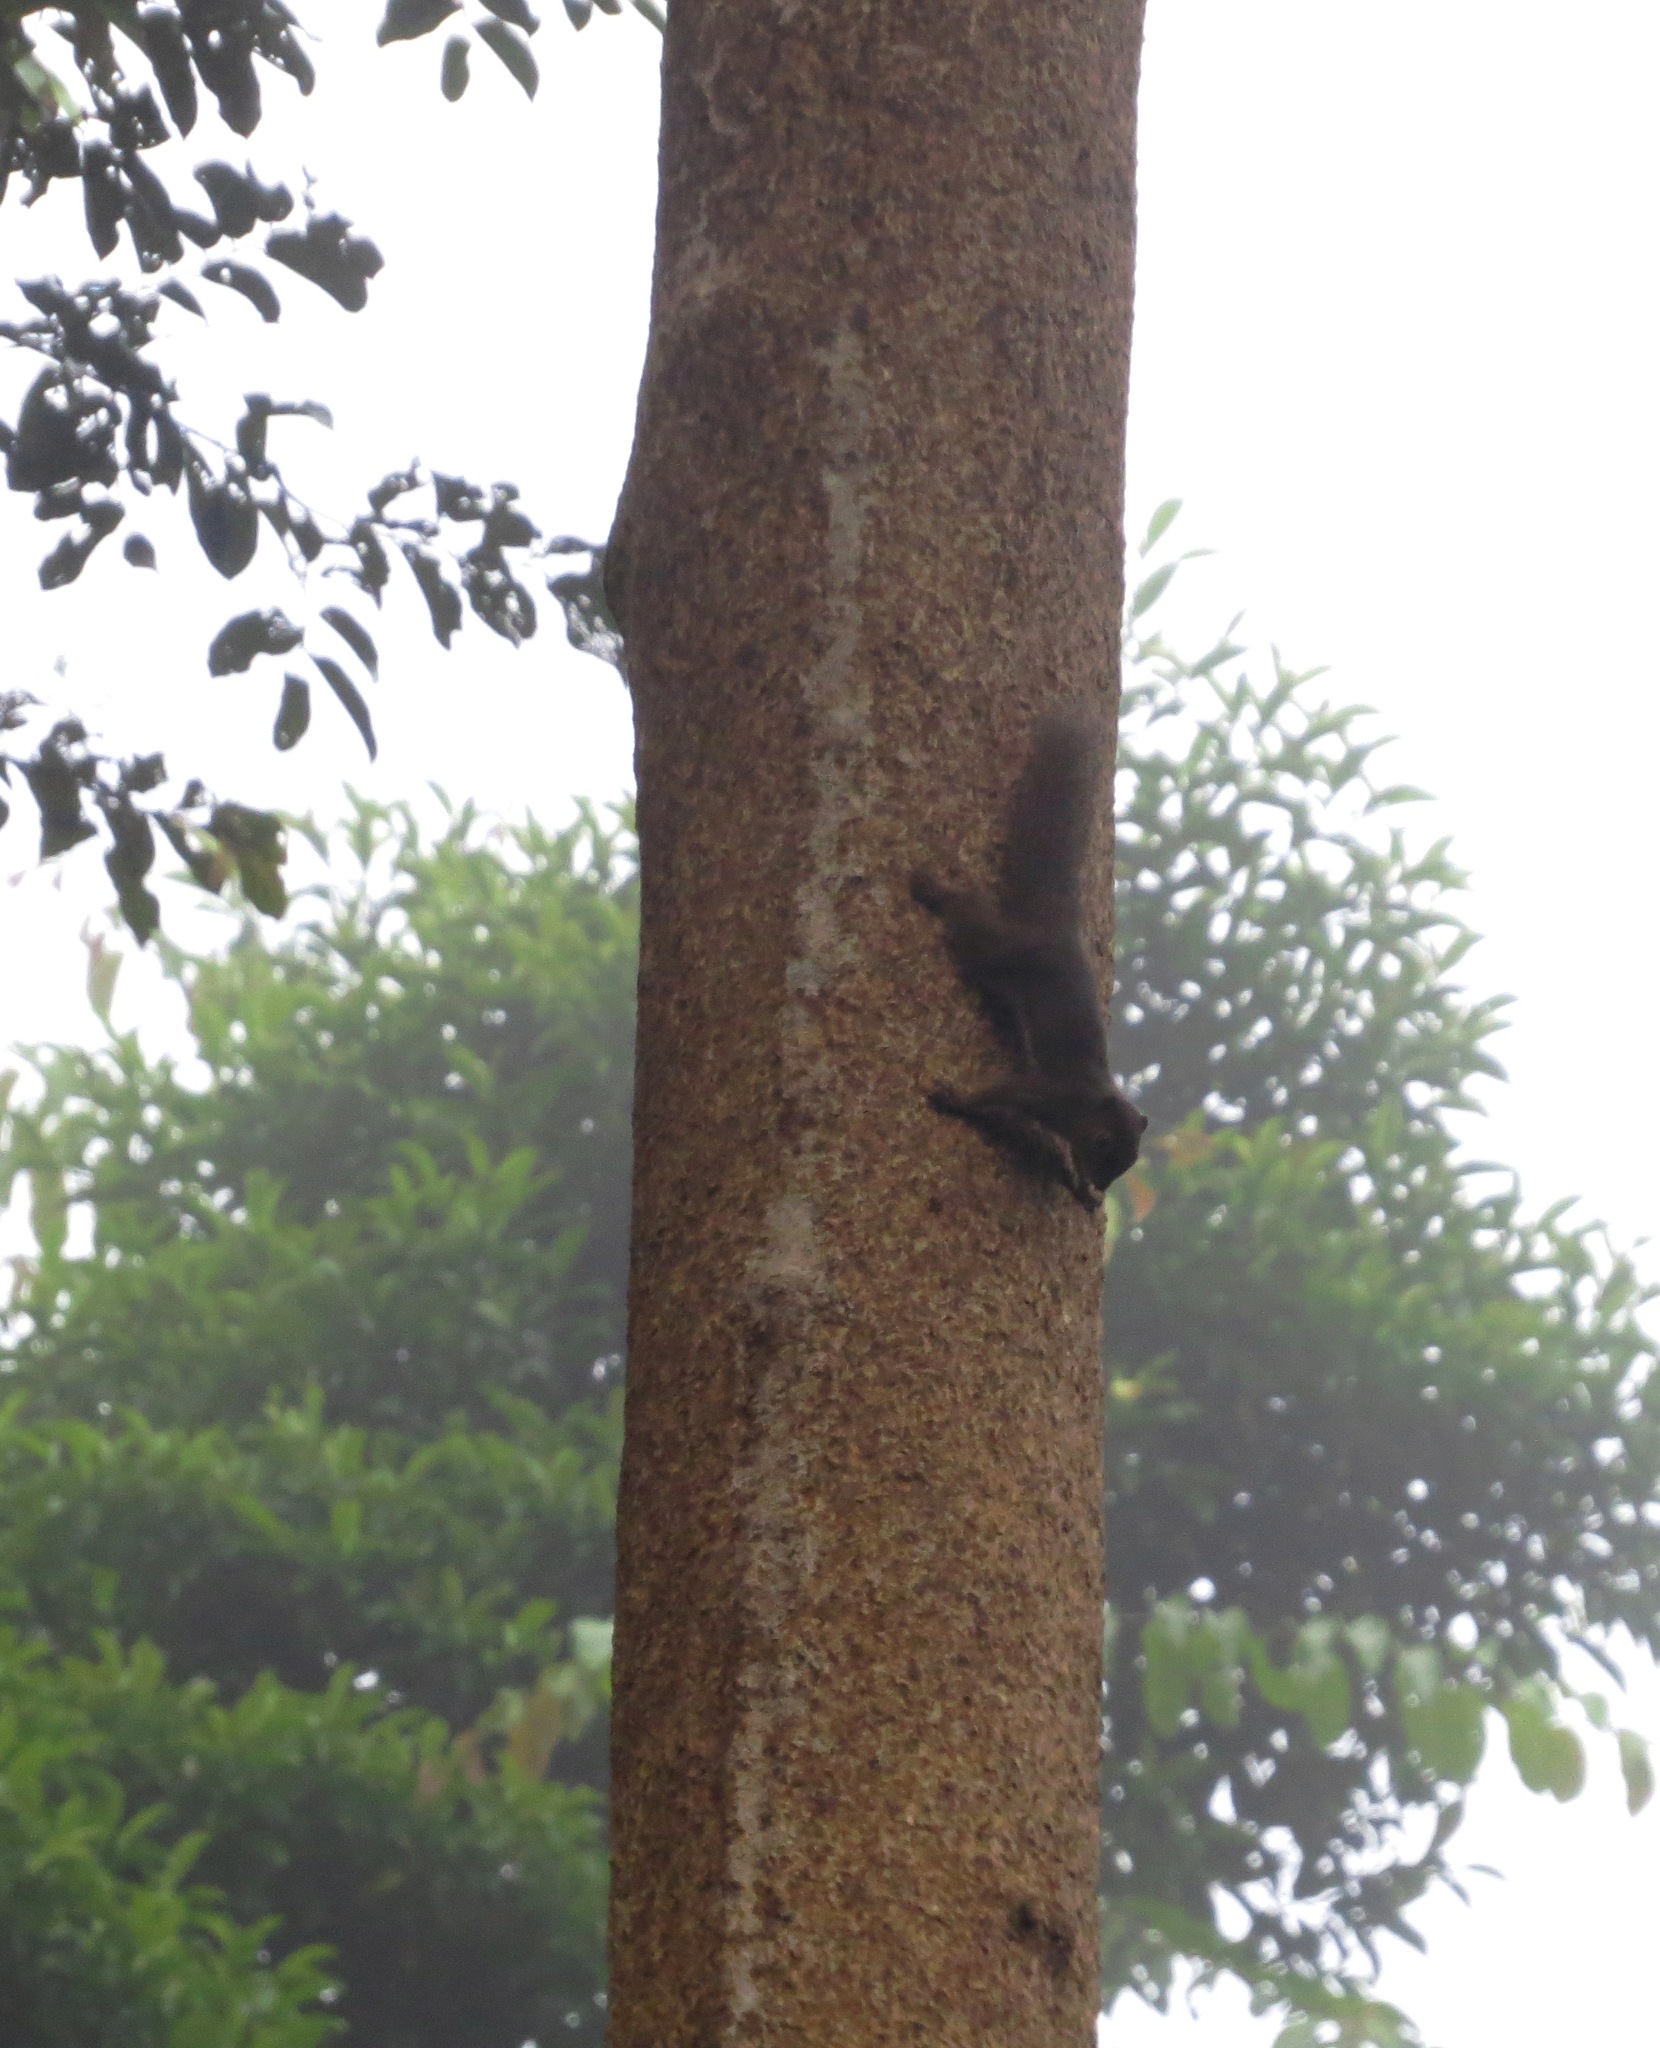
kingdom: Animalia
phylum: Chordata
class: Mammalia
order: Rodentia
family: Sciuridae
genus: Callosciurus
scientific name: Callosciurus notatus
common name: Plantain squirrel
